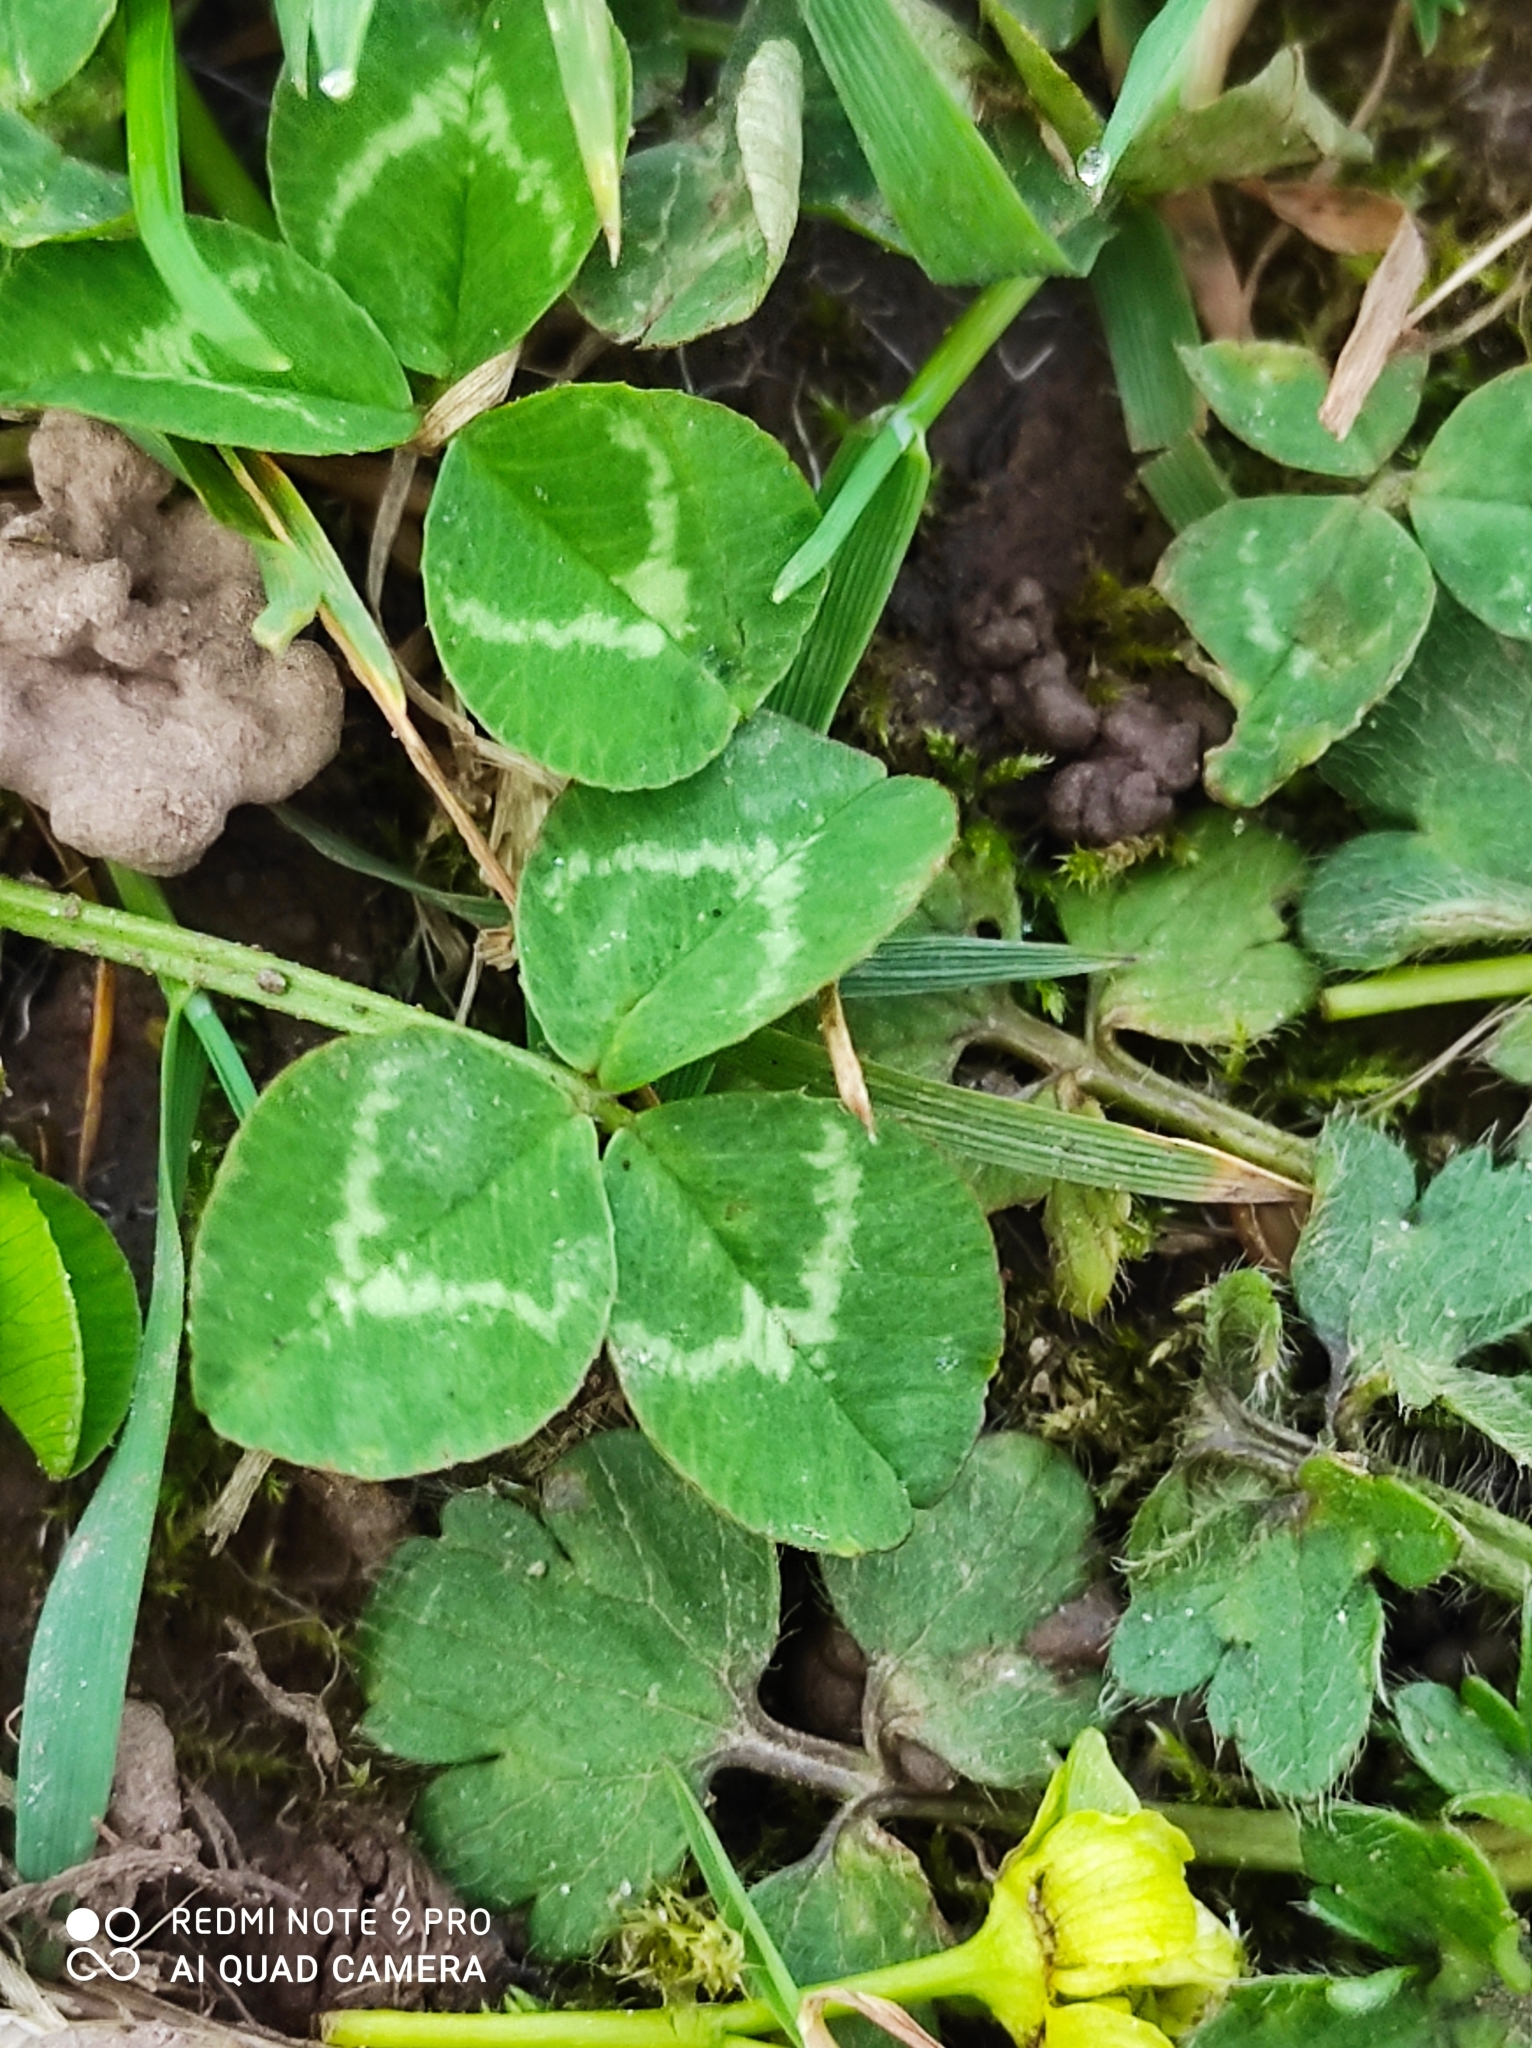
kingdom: Plantae
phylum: Tracheophyta
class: Magnoliopsida
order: Fabales
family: Fabaceae
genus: Trifolium
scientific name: Trifolium repens
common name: White clover
